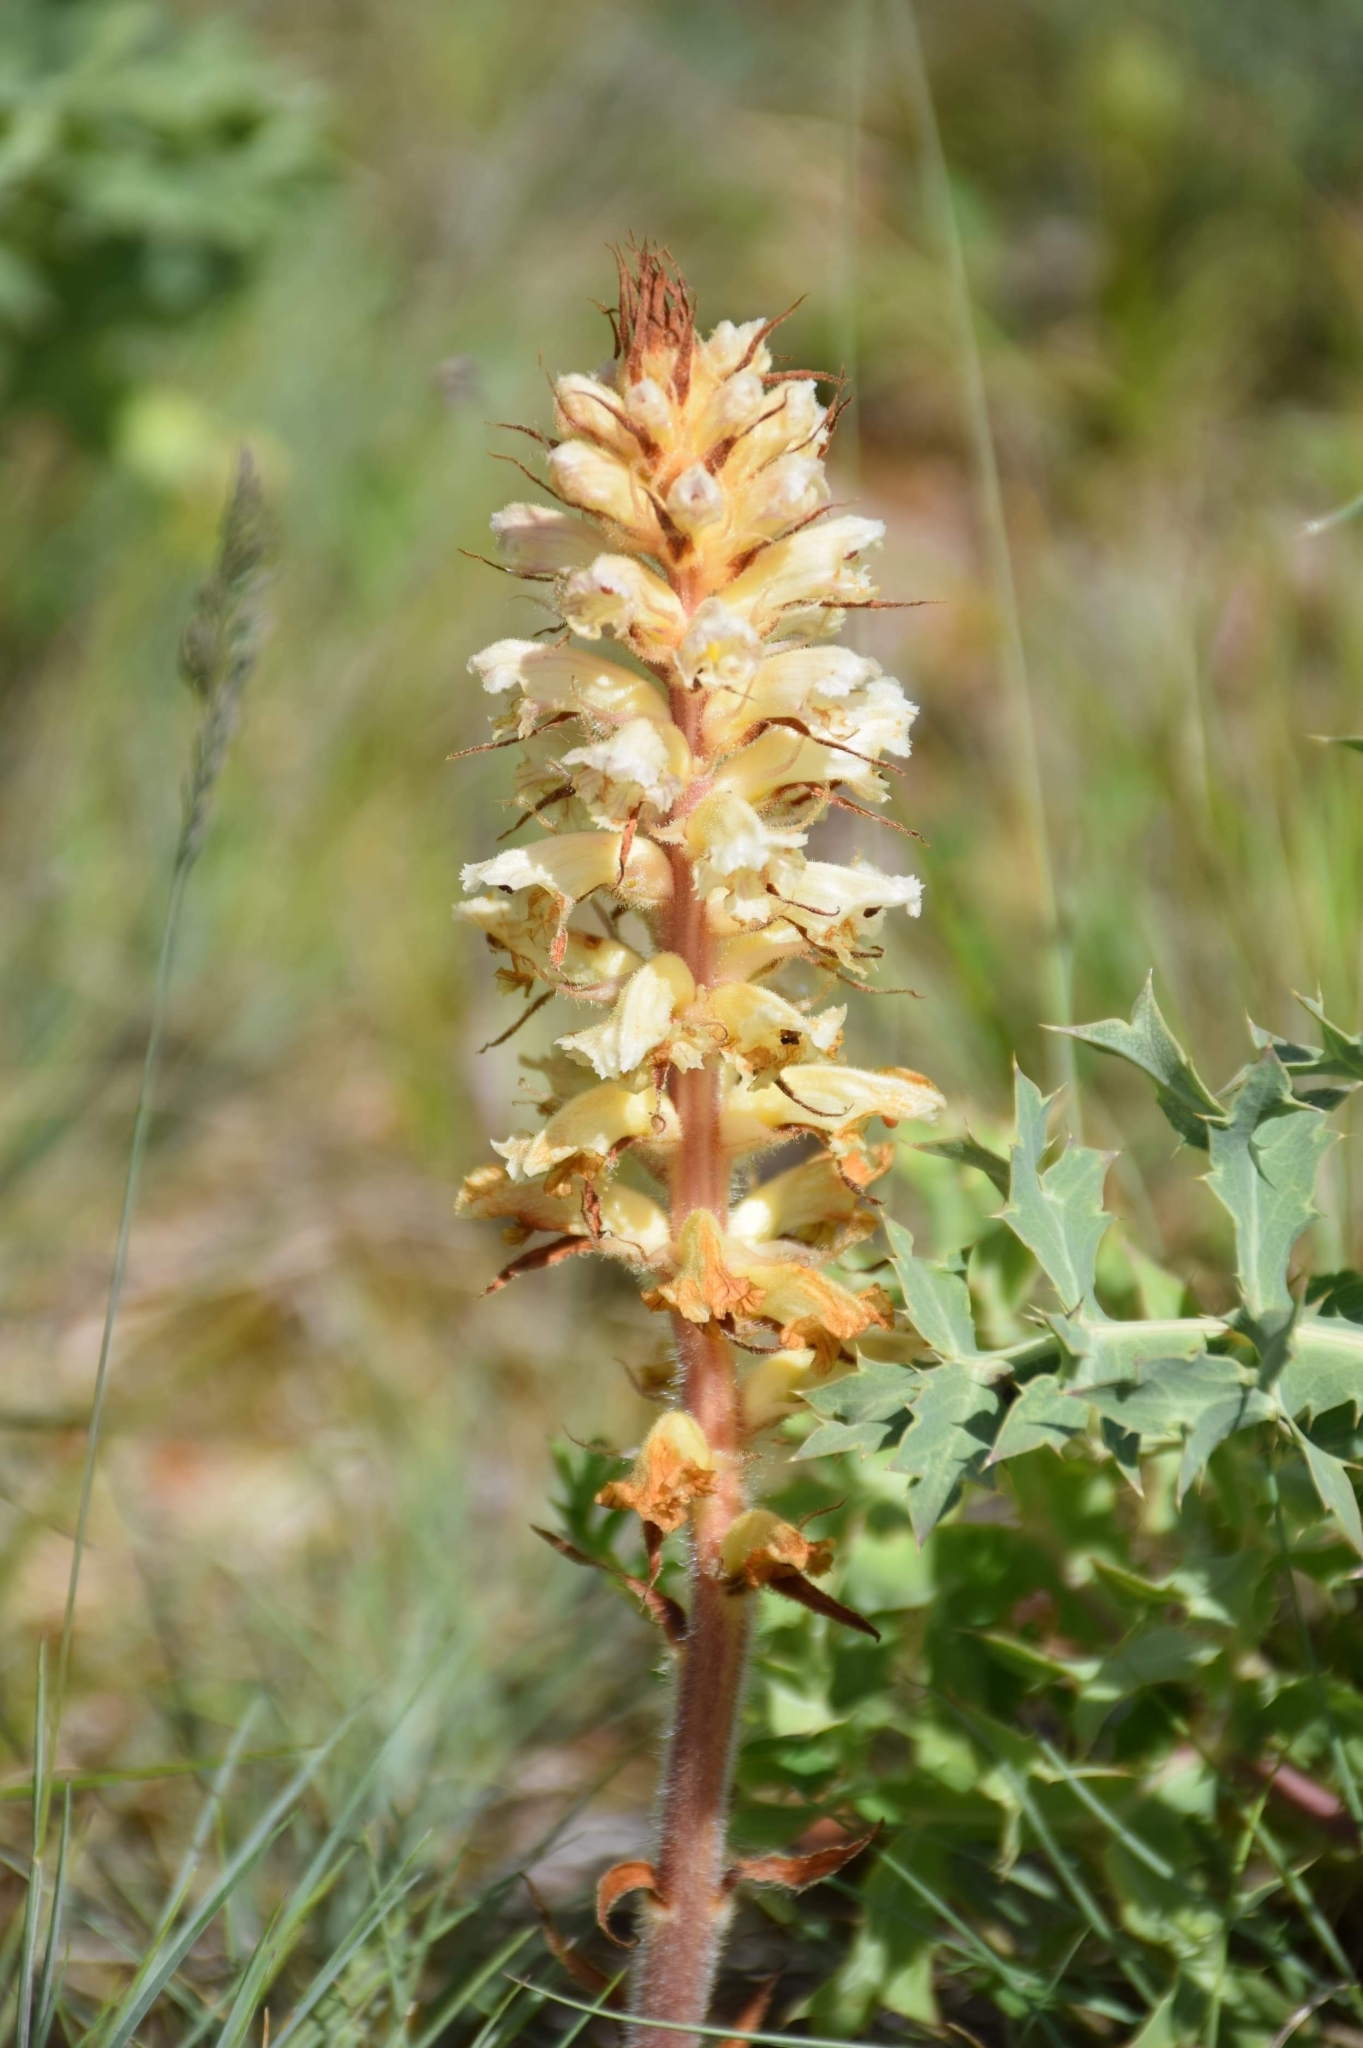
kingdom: Plantae
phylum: Tracheophyta
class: Magnoliopsida
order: Lamiales
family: Orobanchaceae
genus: Orobanche
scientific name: Orobanche amethystea
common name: Amethyst broomrape
